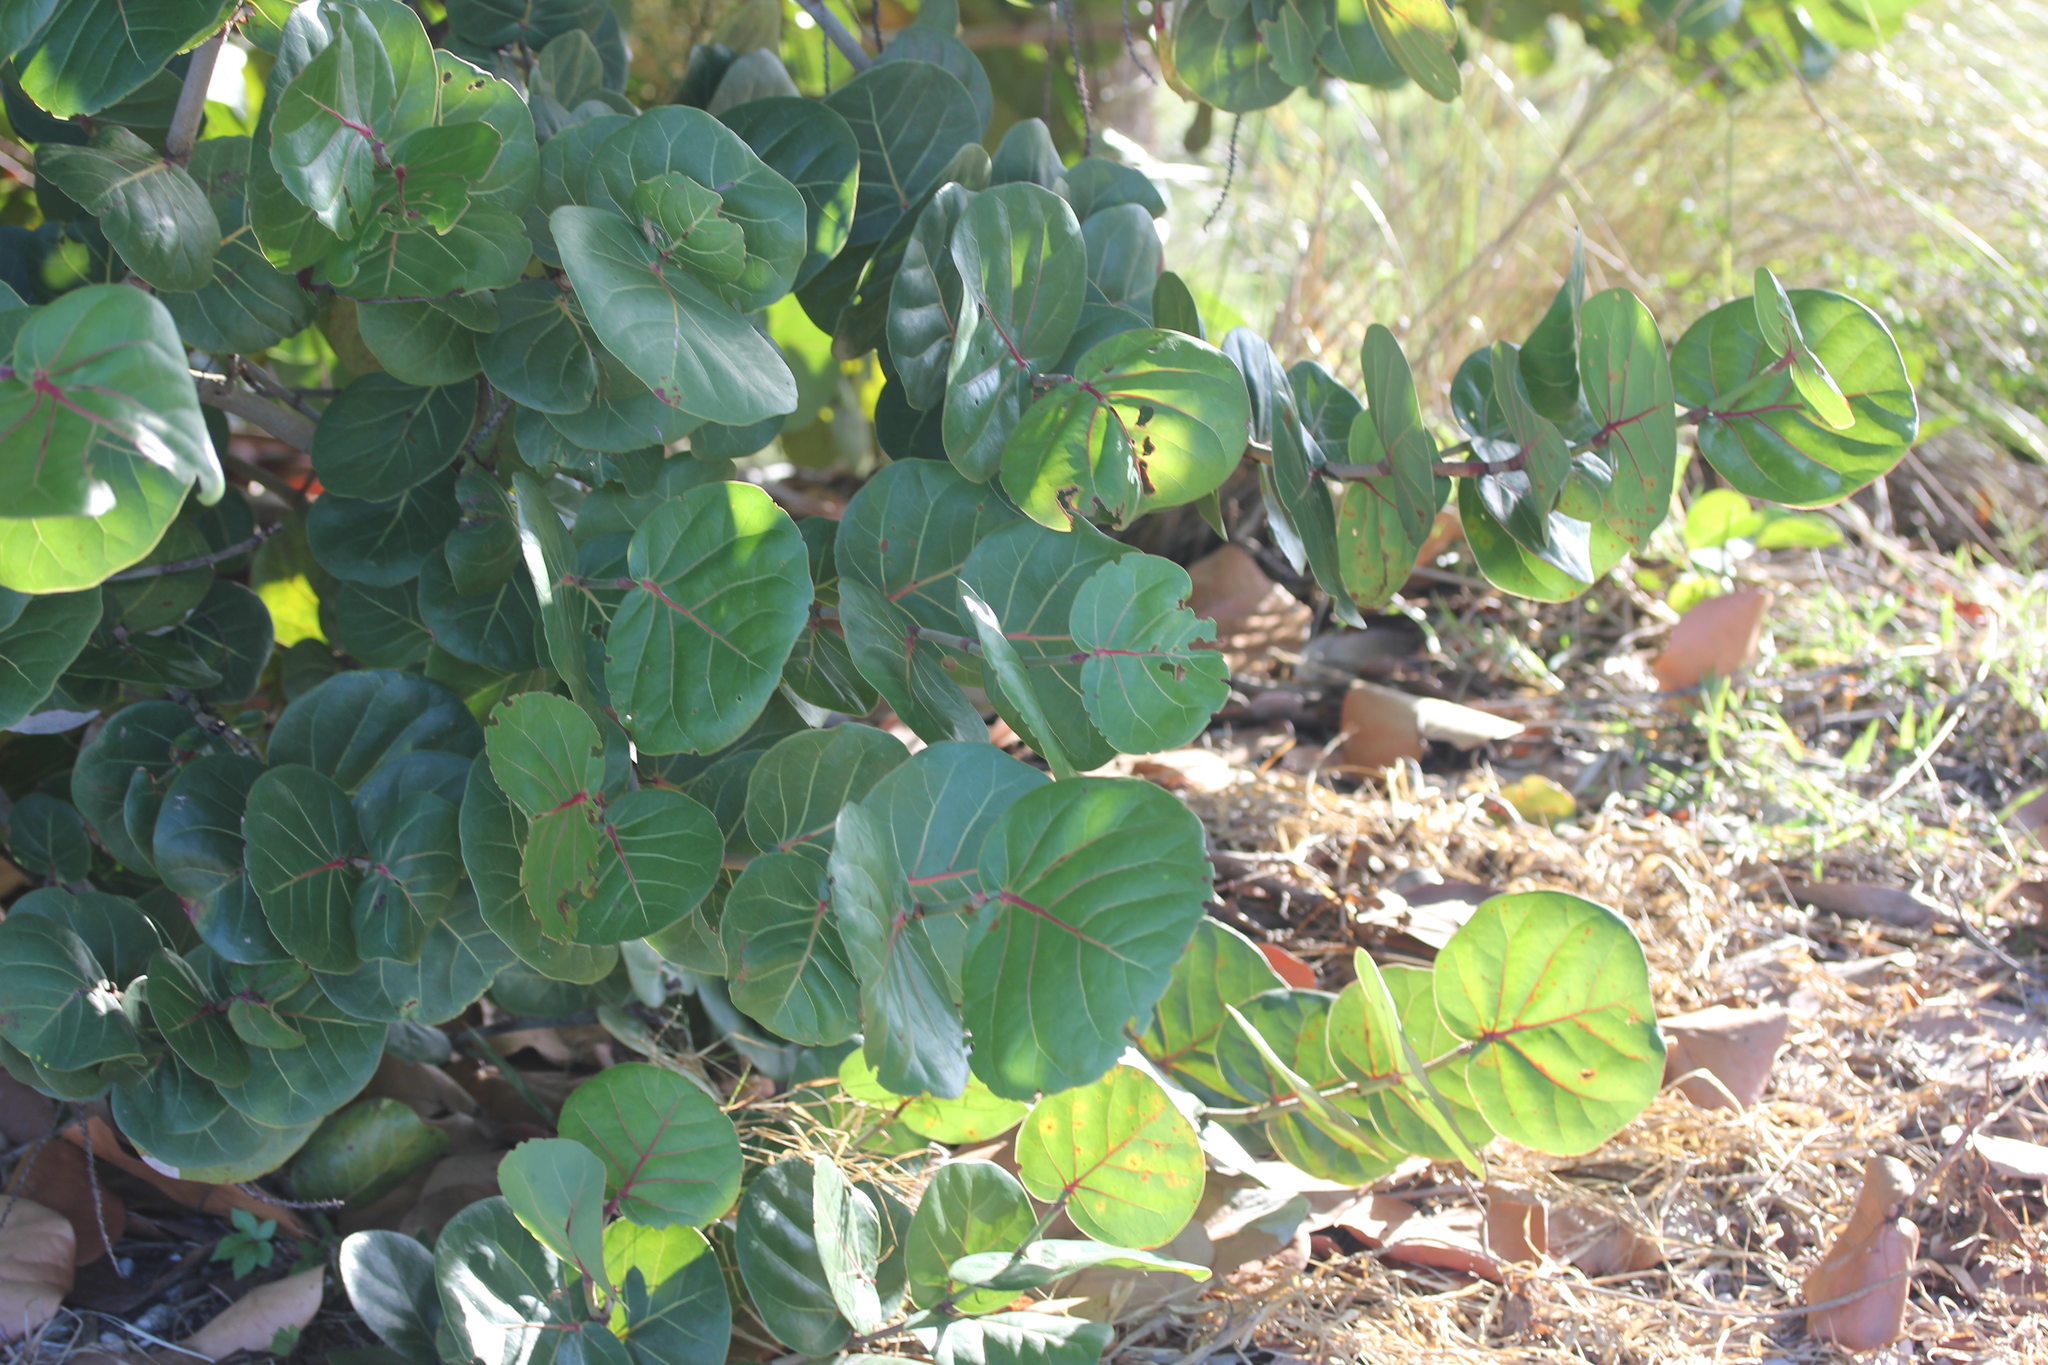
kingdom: Plantae
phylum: Tracheophyta
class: Magnoliopsida
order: Caryophyllales
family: Polygonaceae
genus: Coccoloba
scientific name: Coccoloba uvifera
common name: Seagrape
